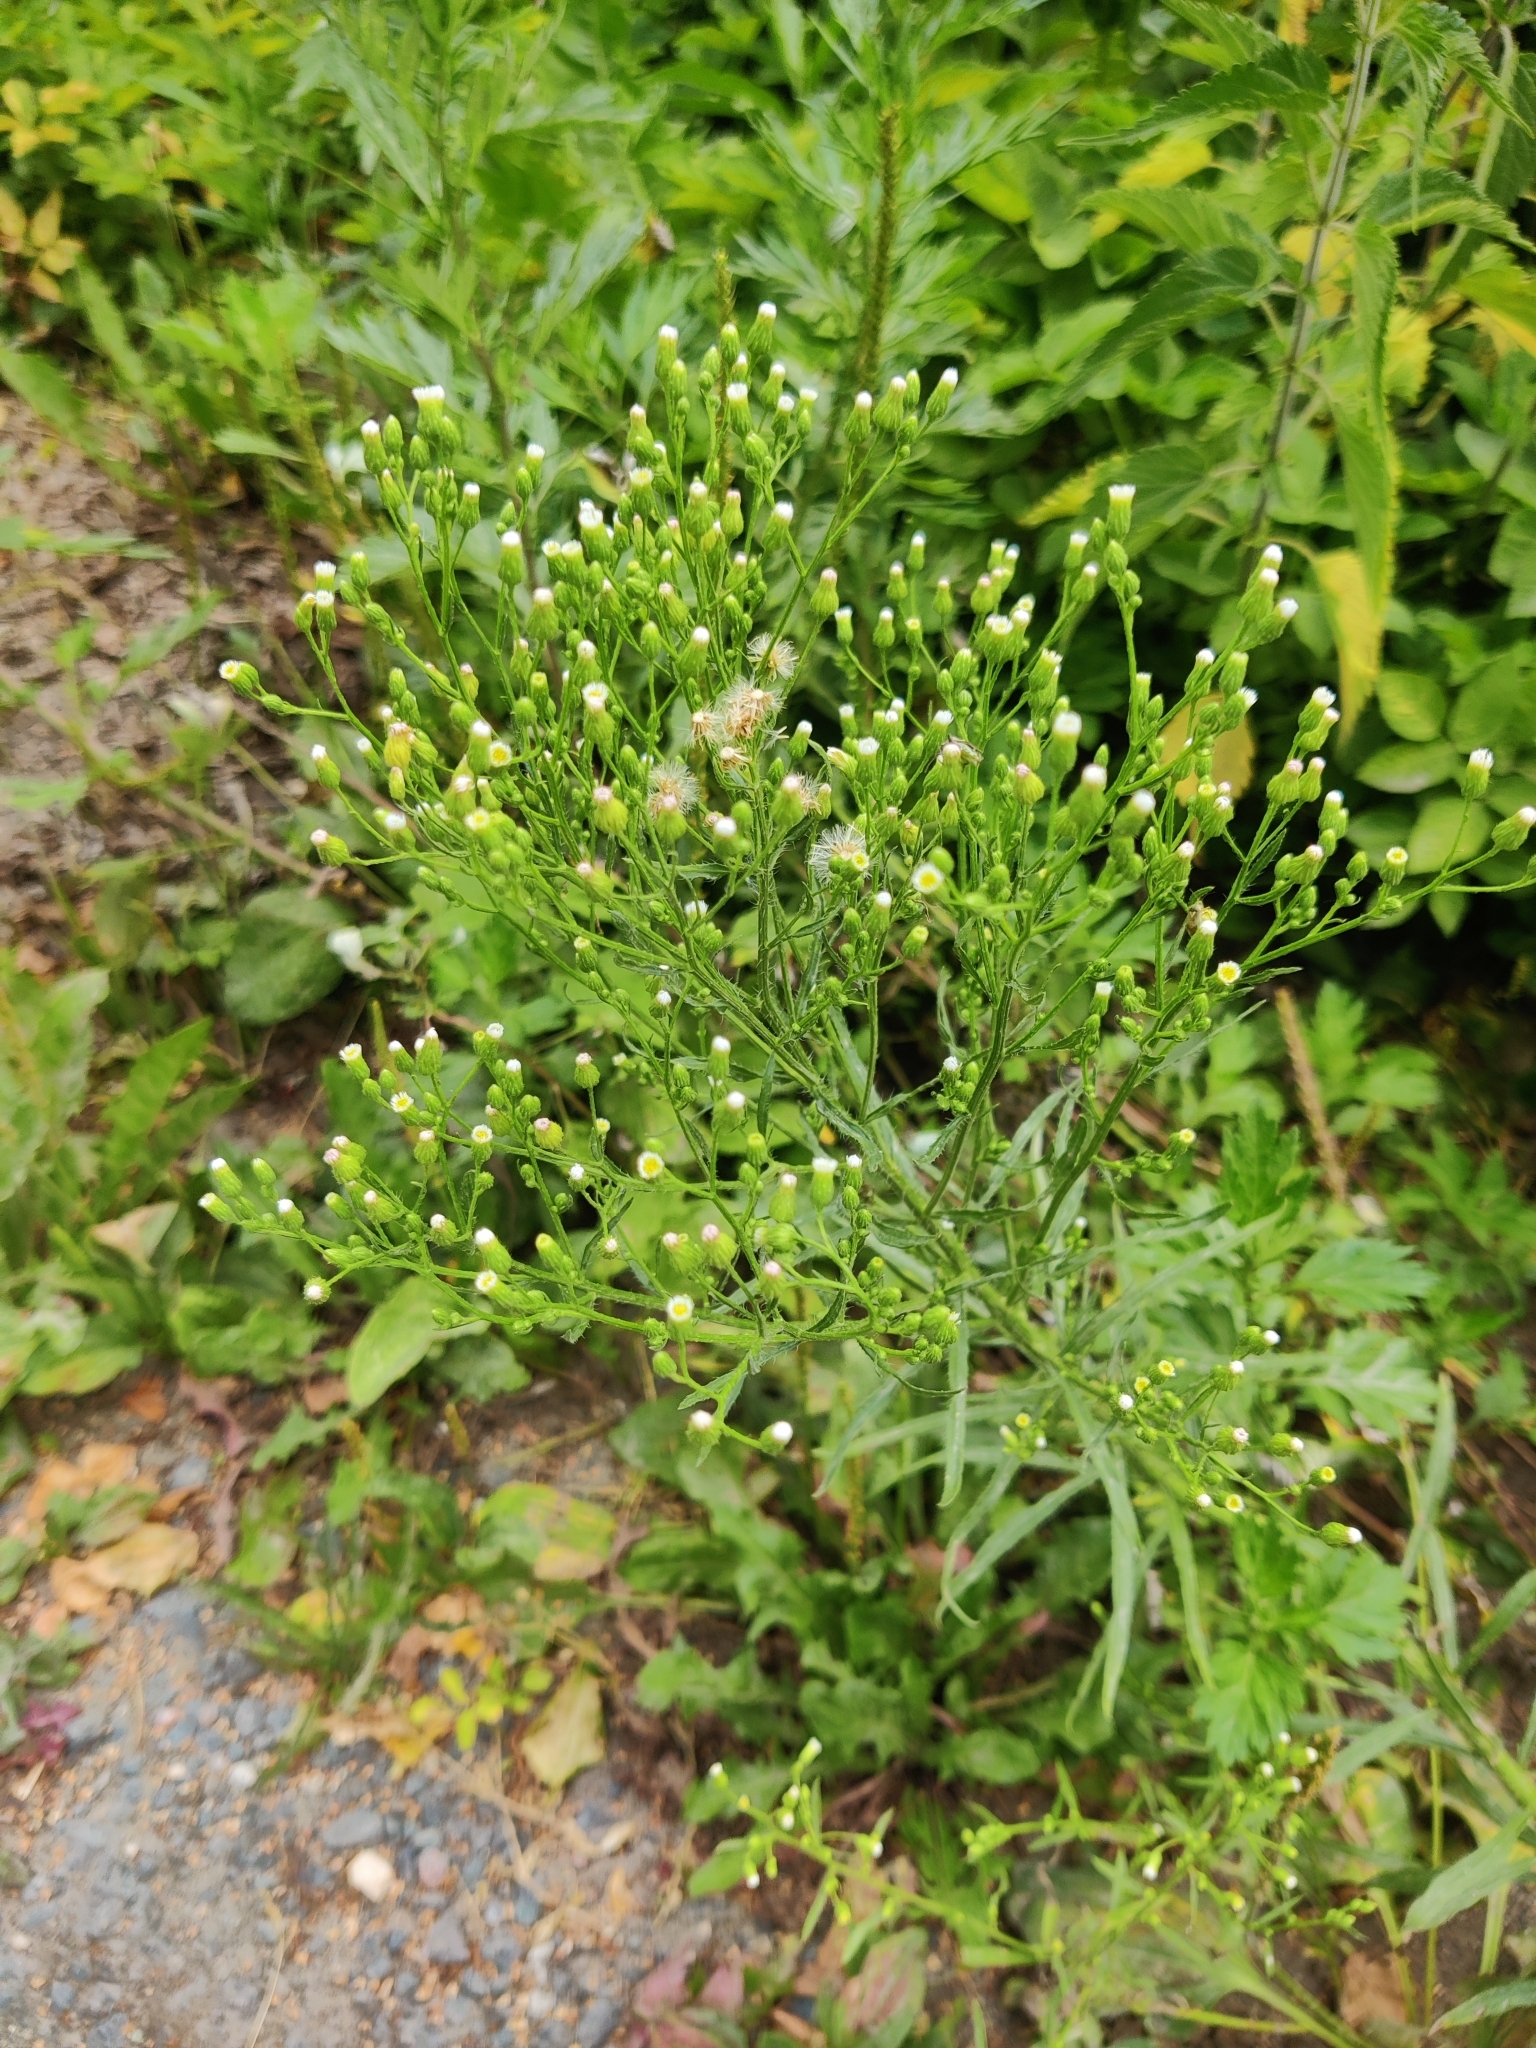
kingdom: Plantae
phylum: Tracheophyta
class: Magnoliopsida
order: Asterales
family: Asteraceae
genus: Erigeron
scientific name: Erigeron canadensis
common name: Canadian fleabane
